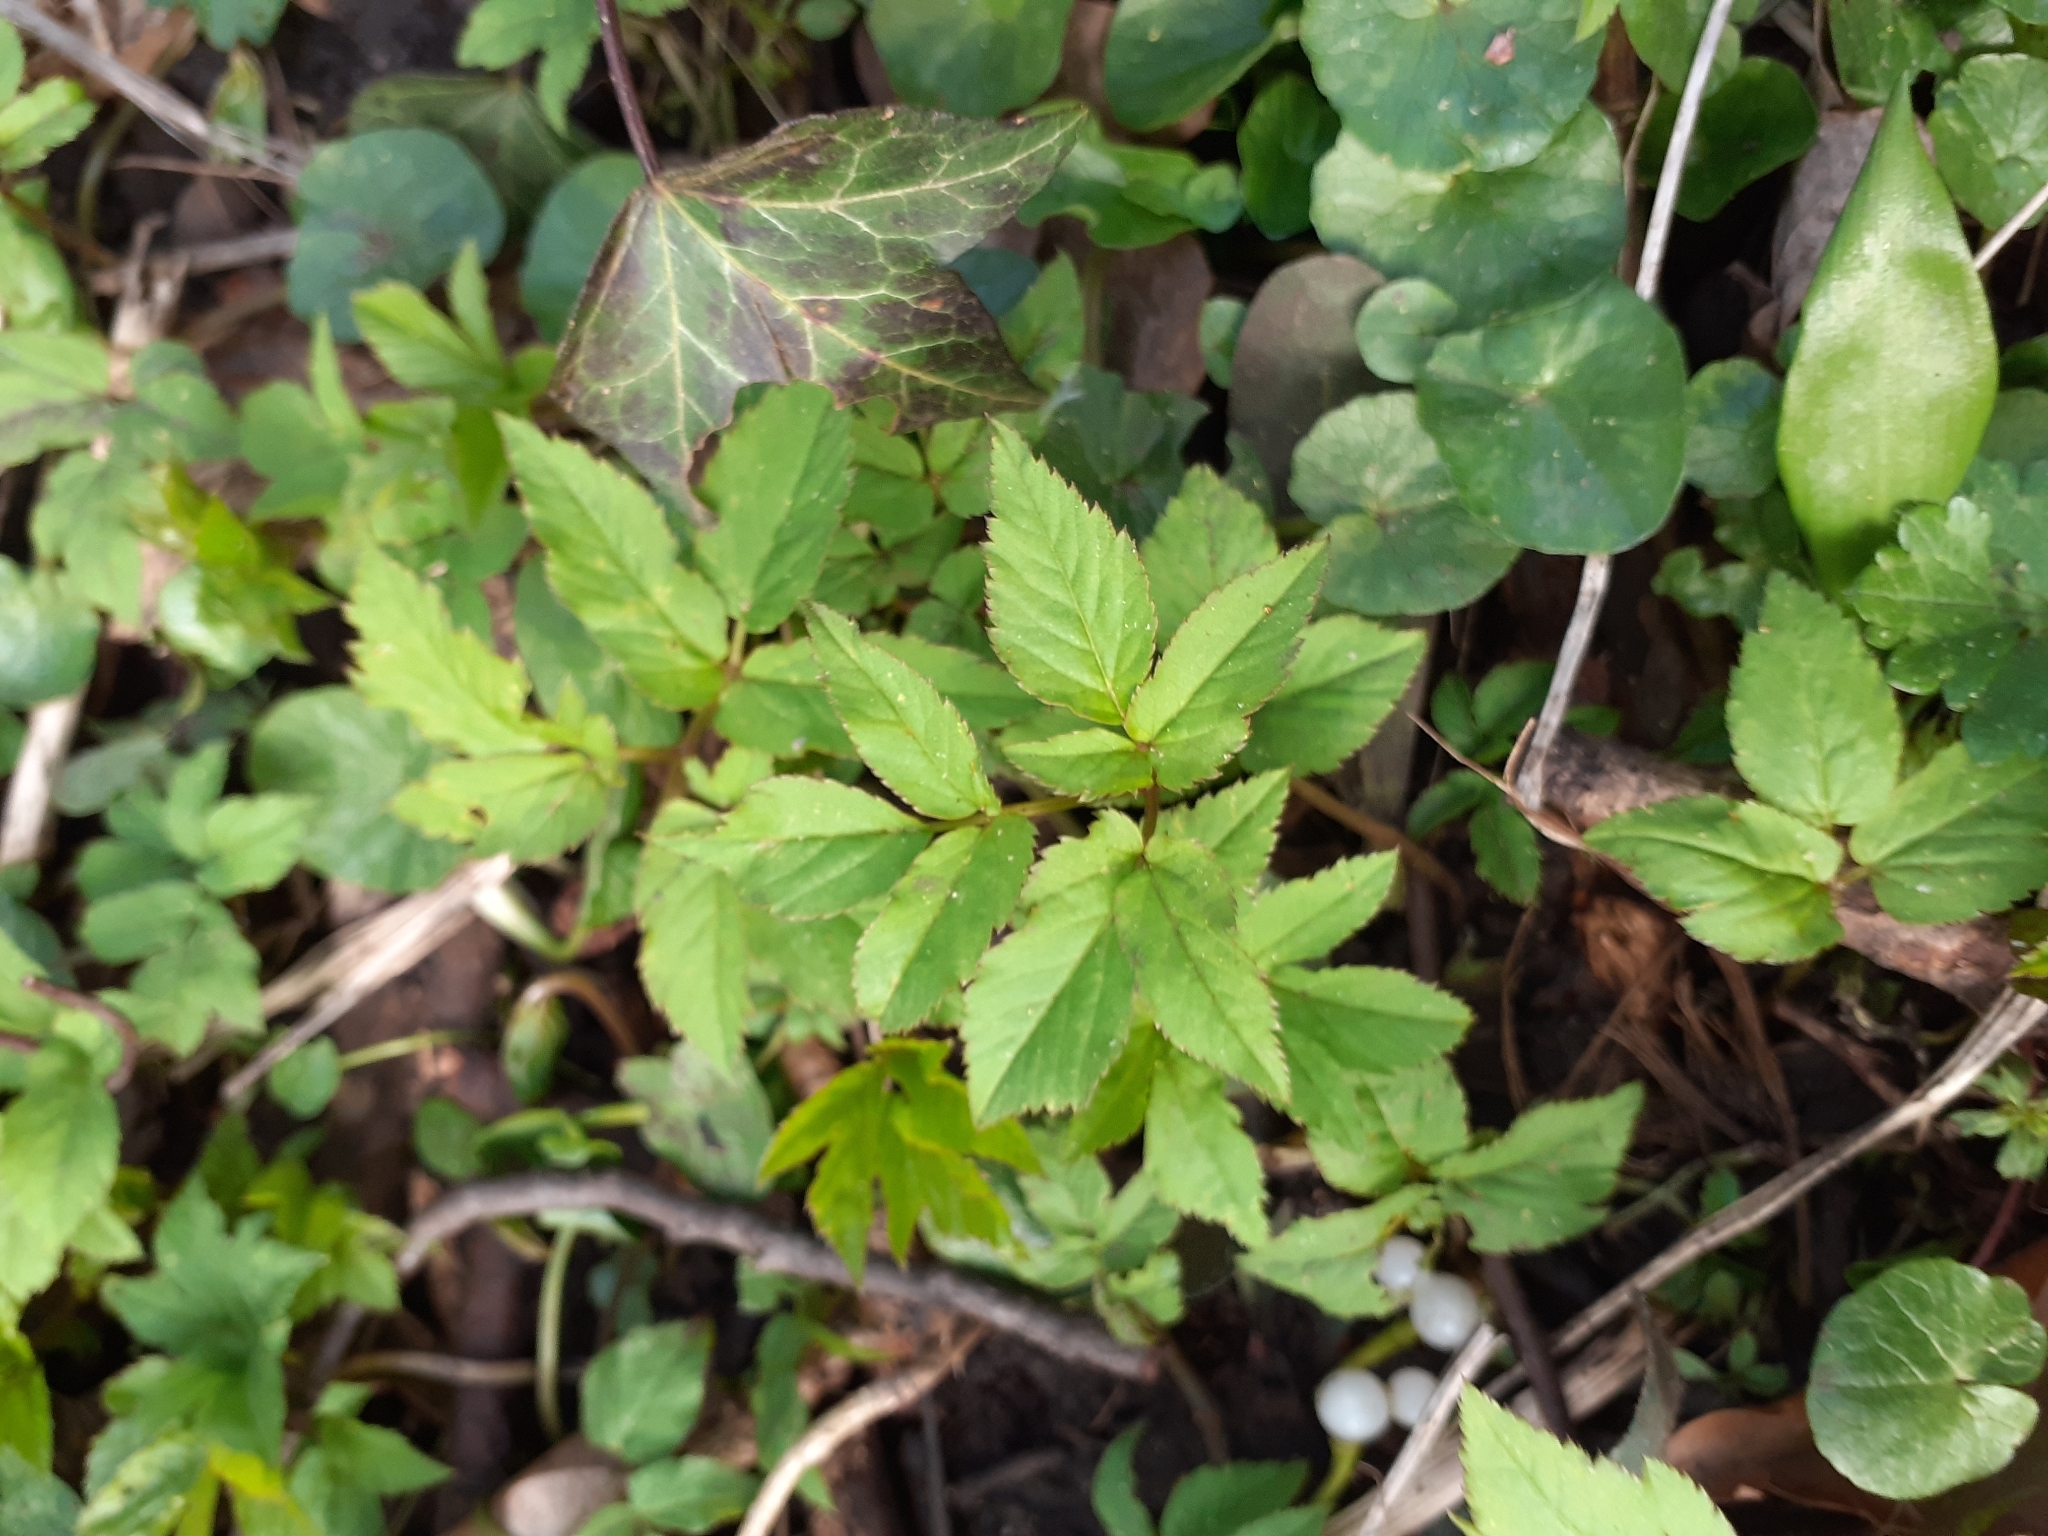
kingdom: Plantae
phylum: Tracheophyta
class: Magnoliopsida
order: Apiales
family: Apiaceae
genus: Aegopodium
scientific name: Aegopodium podagraria
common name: Ground-elder
